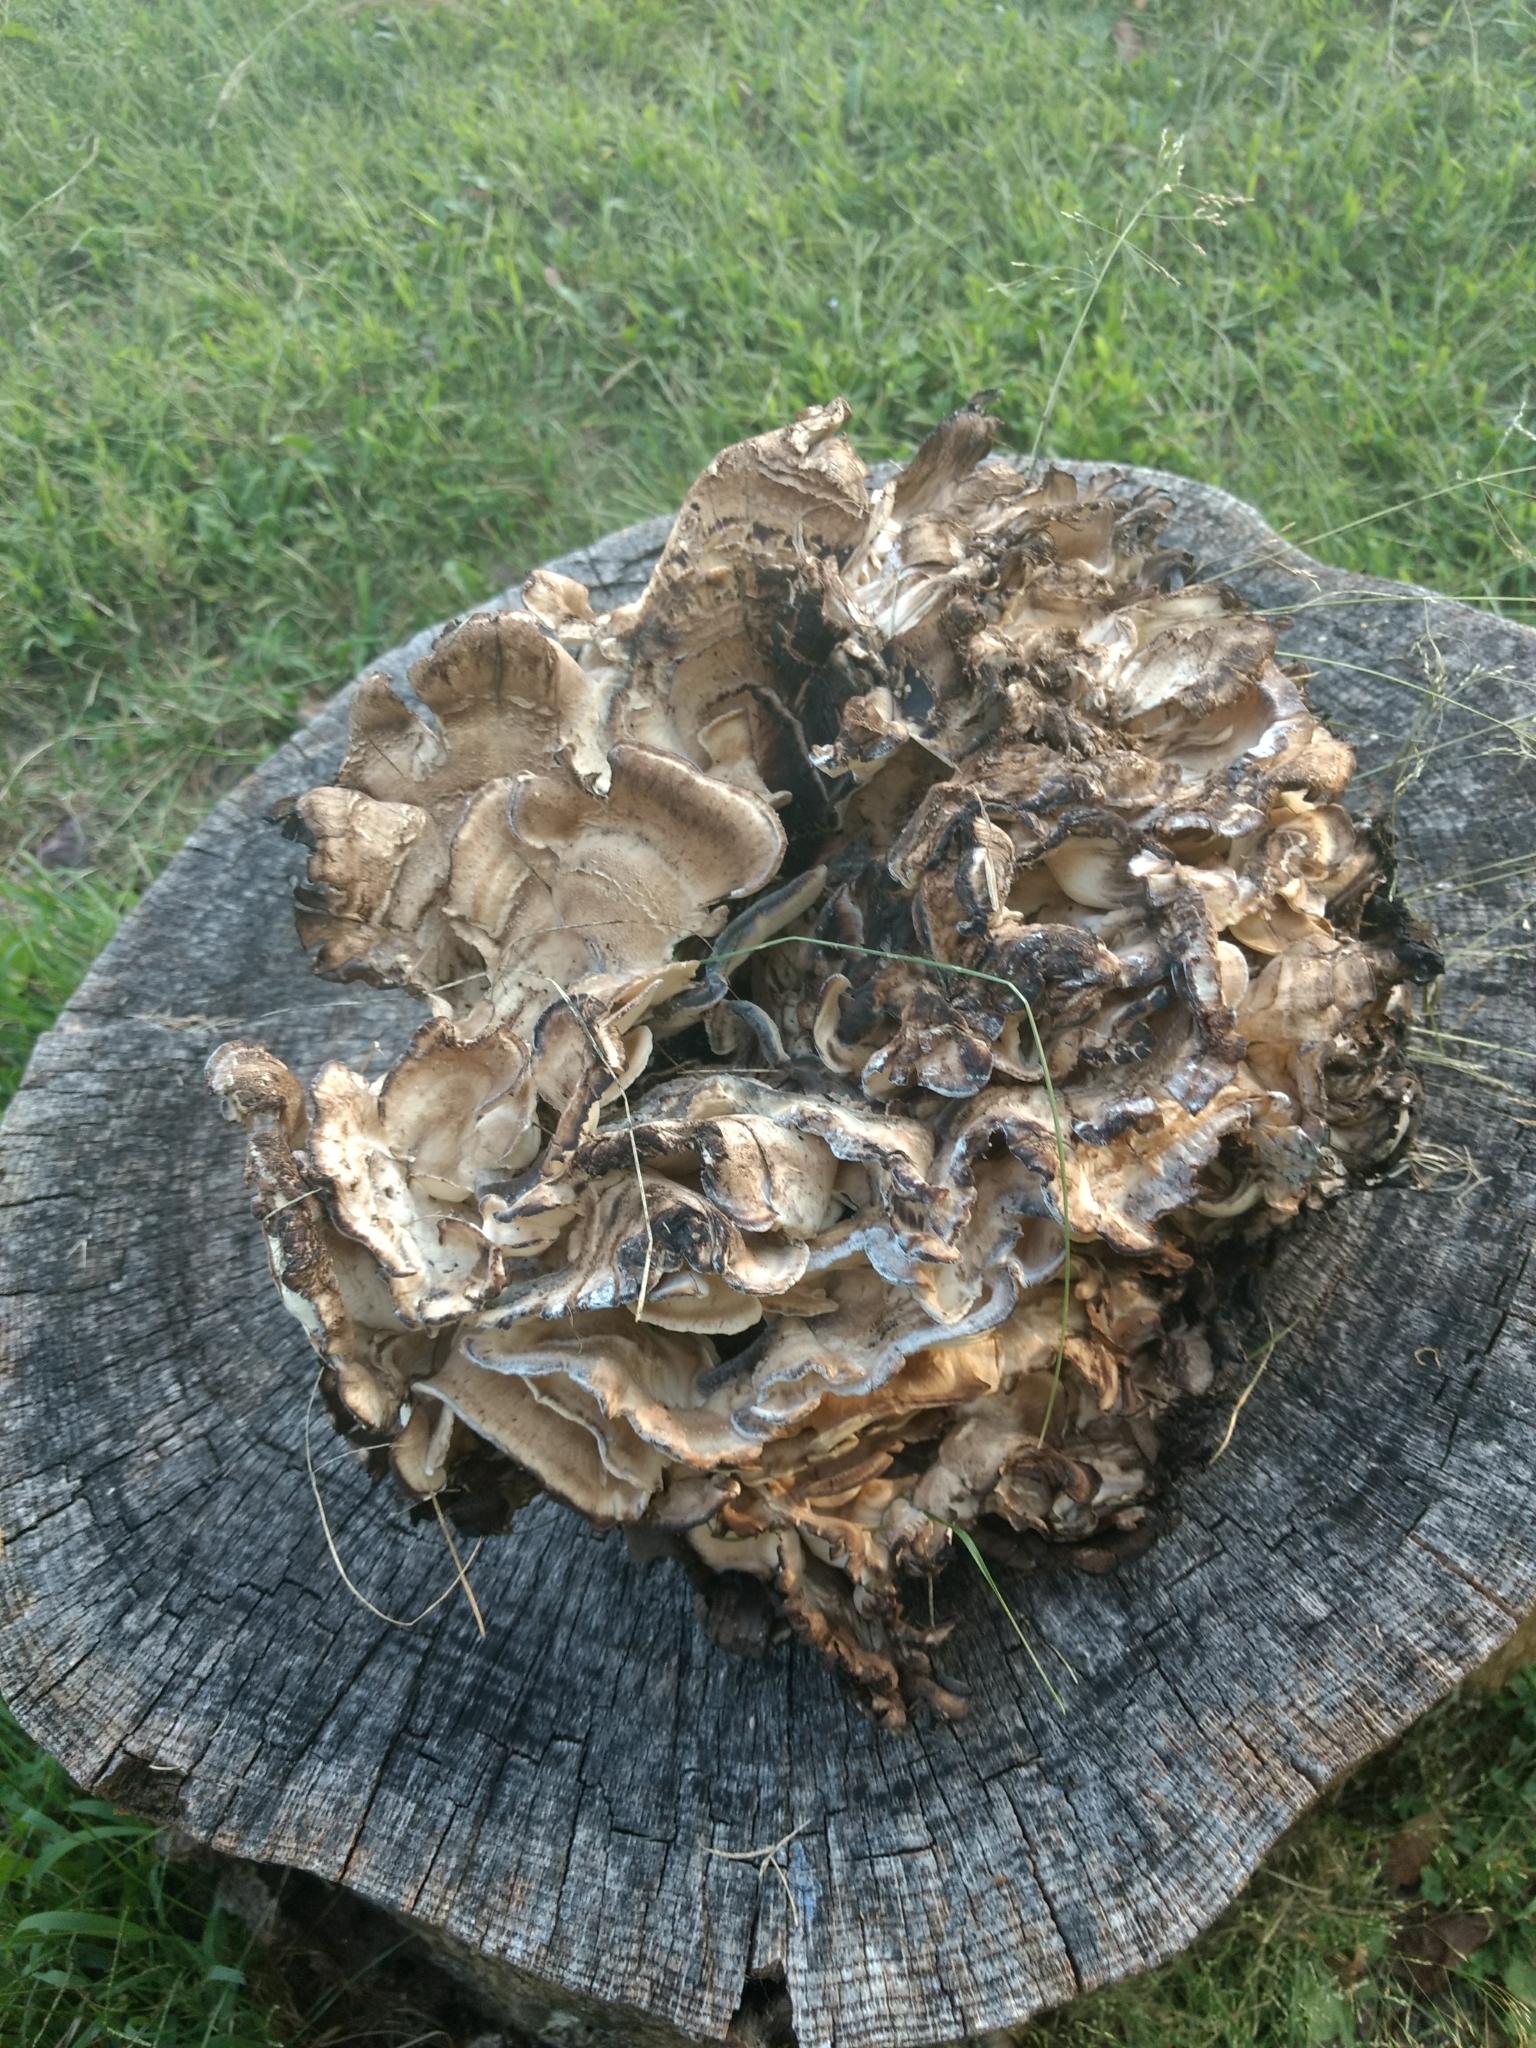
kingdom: Fungi
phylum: Basidiomycota
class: Agaricomycetes
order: Polyporales
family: Meripilaceae
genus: Meripilus
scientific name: Meripilus sumstinei
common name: Black-staining polypore
